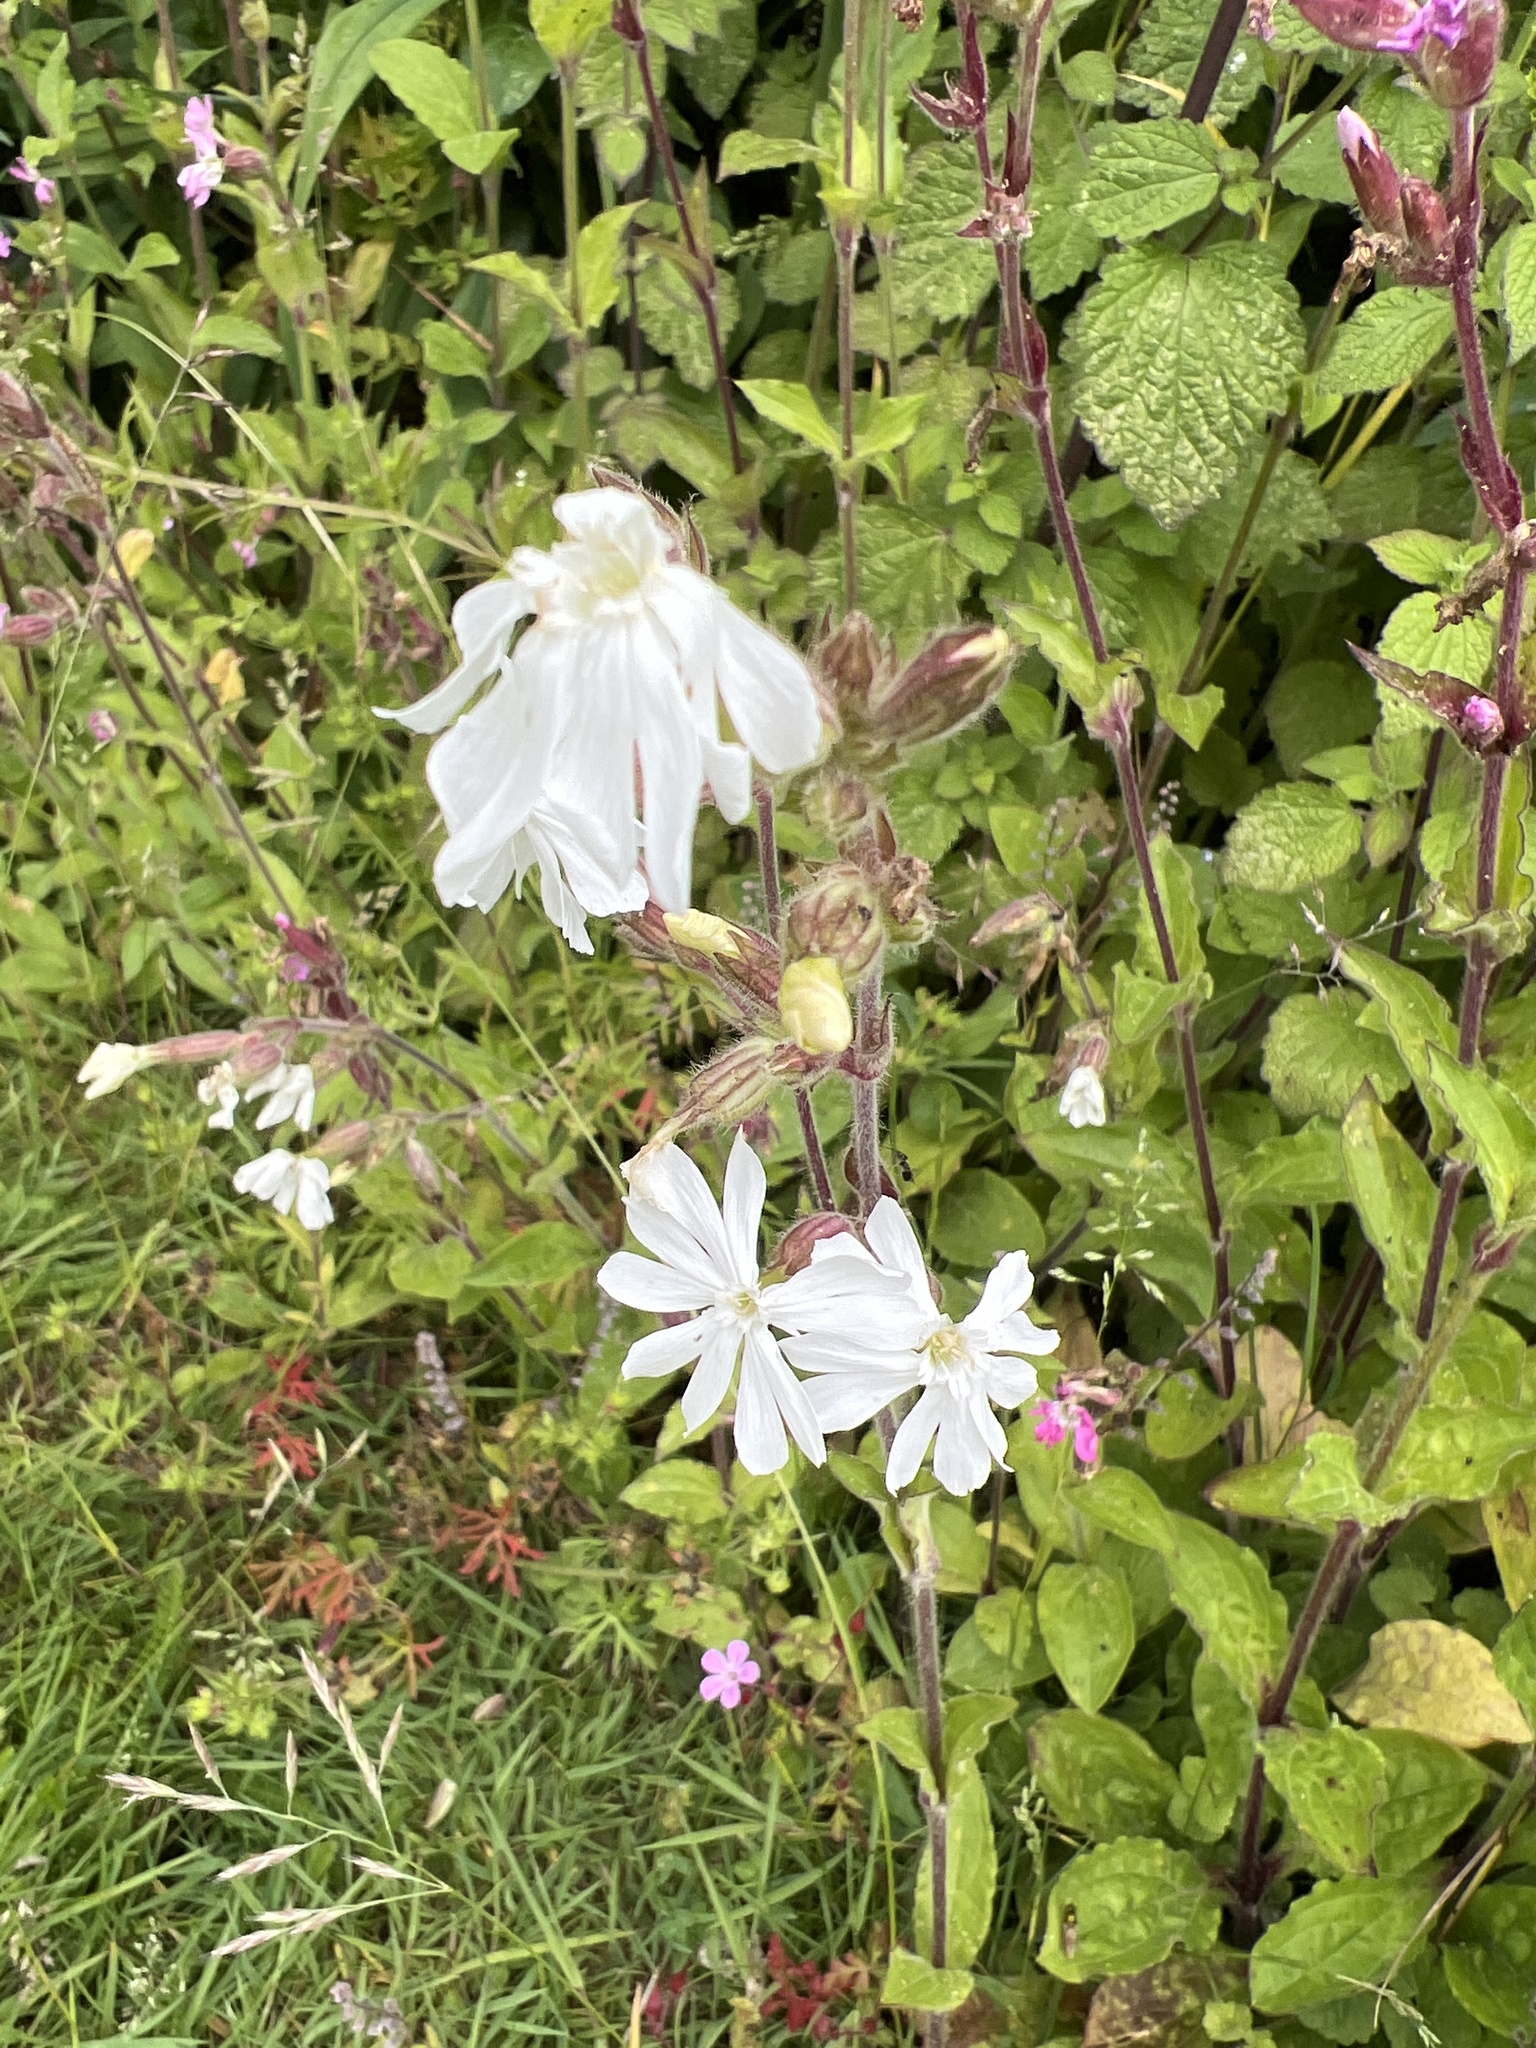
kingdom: Plantae
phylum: Tracheophyta
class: Magnoliopsida
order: Caryophyllales
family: Caryophyllaceae
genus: Silene
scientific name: Silene latifolia
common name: White campion
